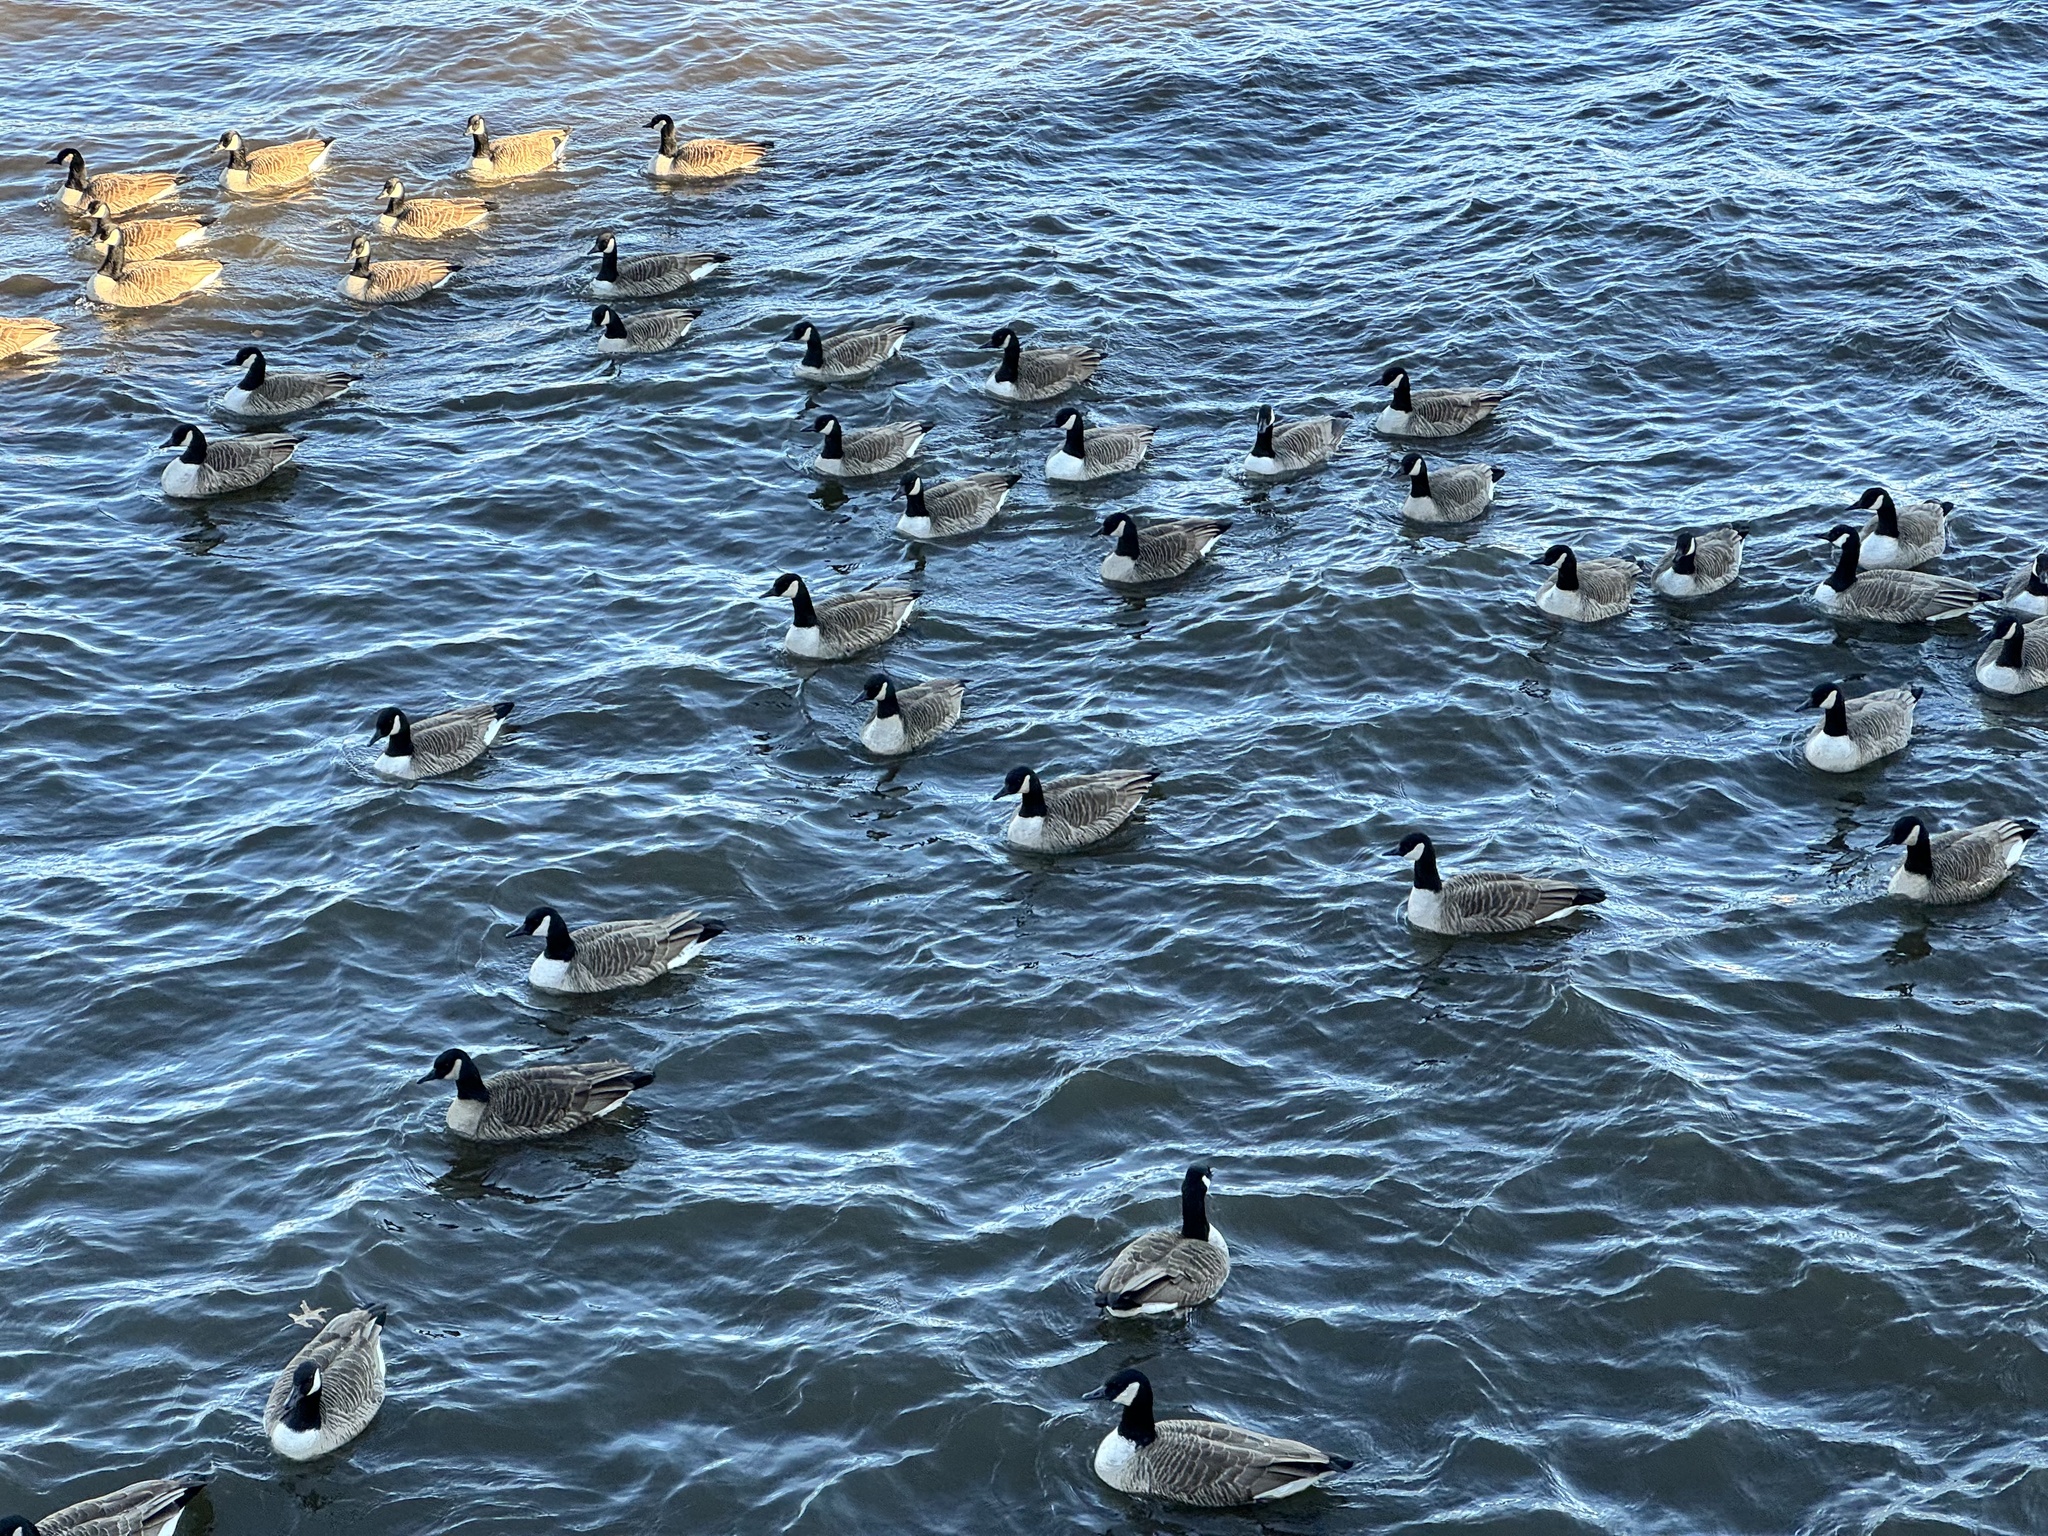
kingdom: Animalia
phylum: Chordata
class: Aves
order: Anseriformes
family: Anatidae
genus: Branta
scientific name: Branta canadensis
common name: Canada goose
